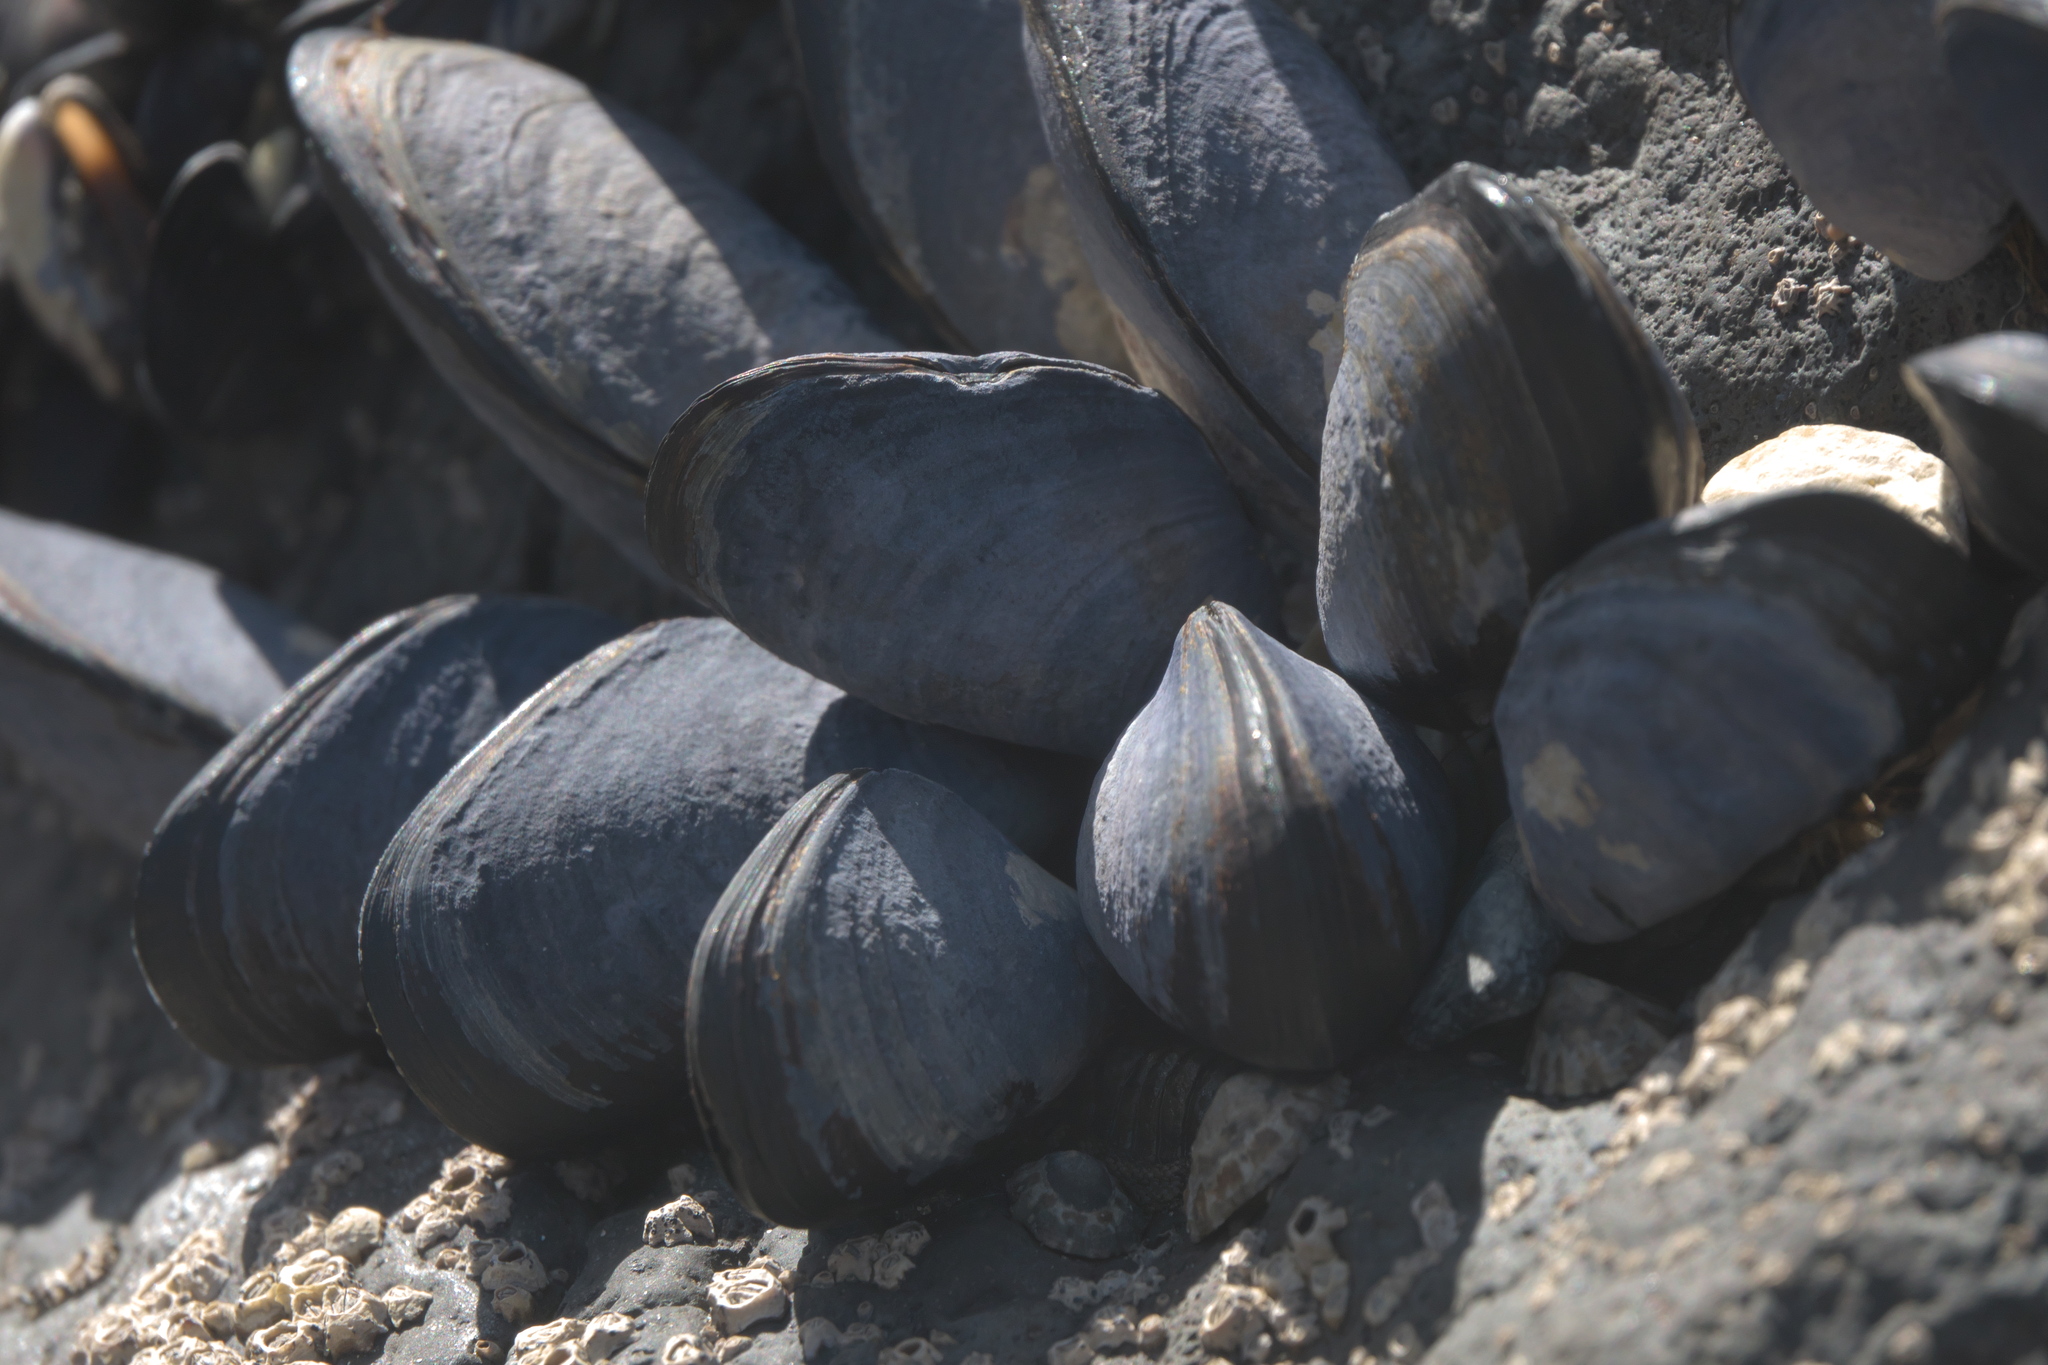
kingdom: Animalia
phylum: Mollusca
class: Bivalvia
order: Mytilida
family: Mytilidae
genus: Mytilus
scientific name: Mytilus planulatus
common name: Australian mussel
